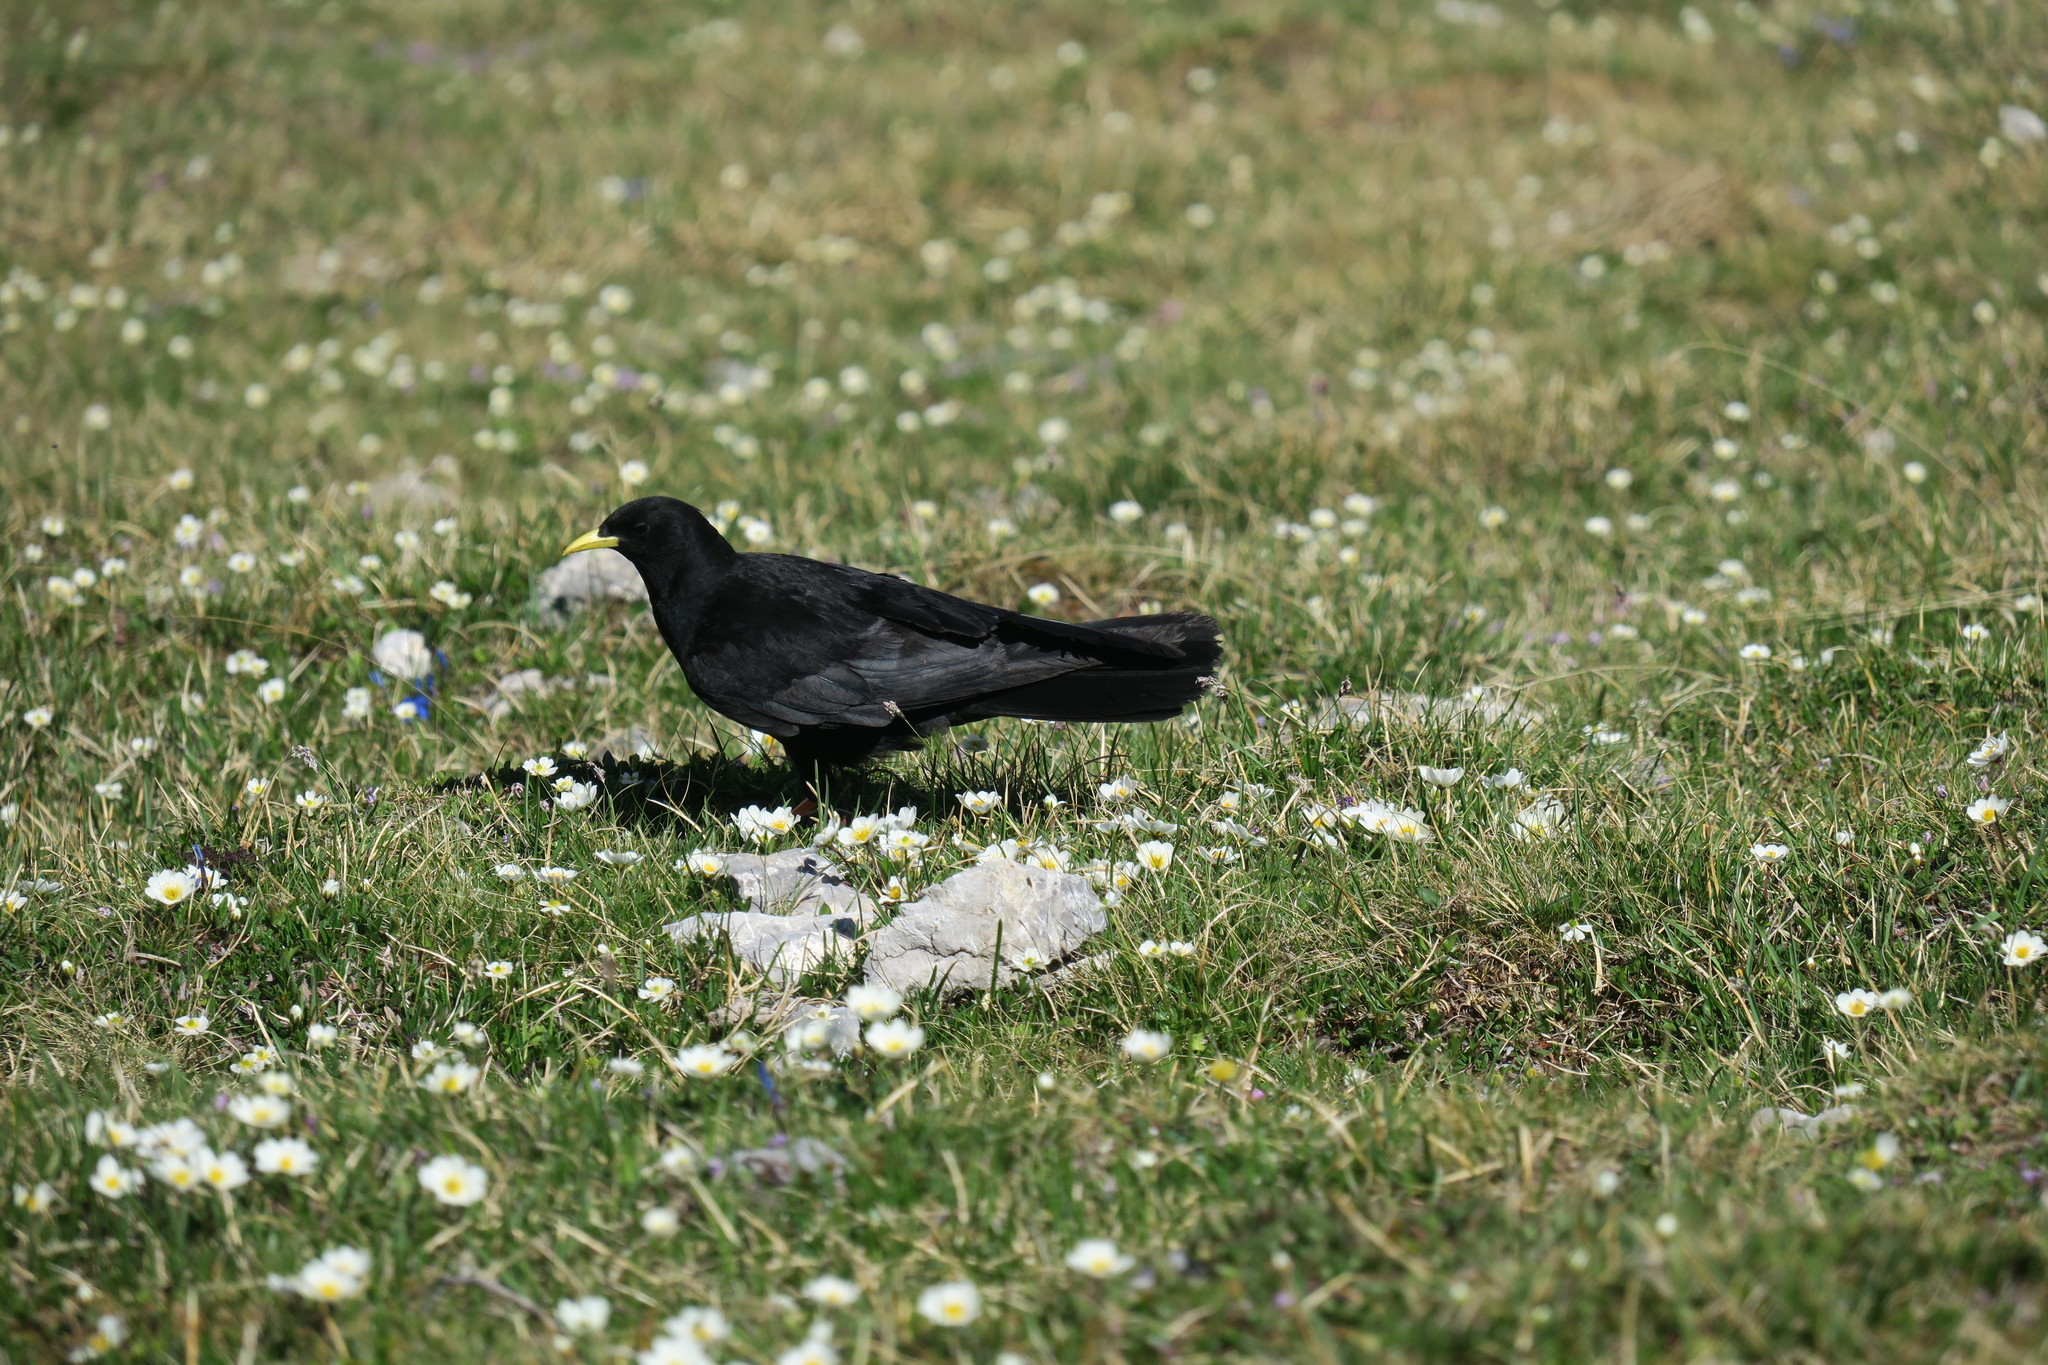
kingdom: Animalia
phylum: Chordata
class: Aves
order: Passeriformes
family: Corvidae
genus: Pyrrhocorax
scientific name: Pyrrhocorax graculus
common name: Alpine chough
